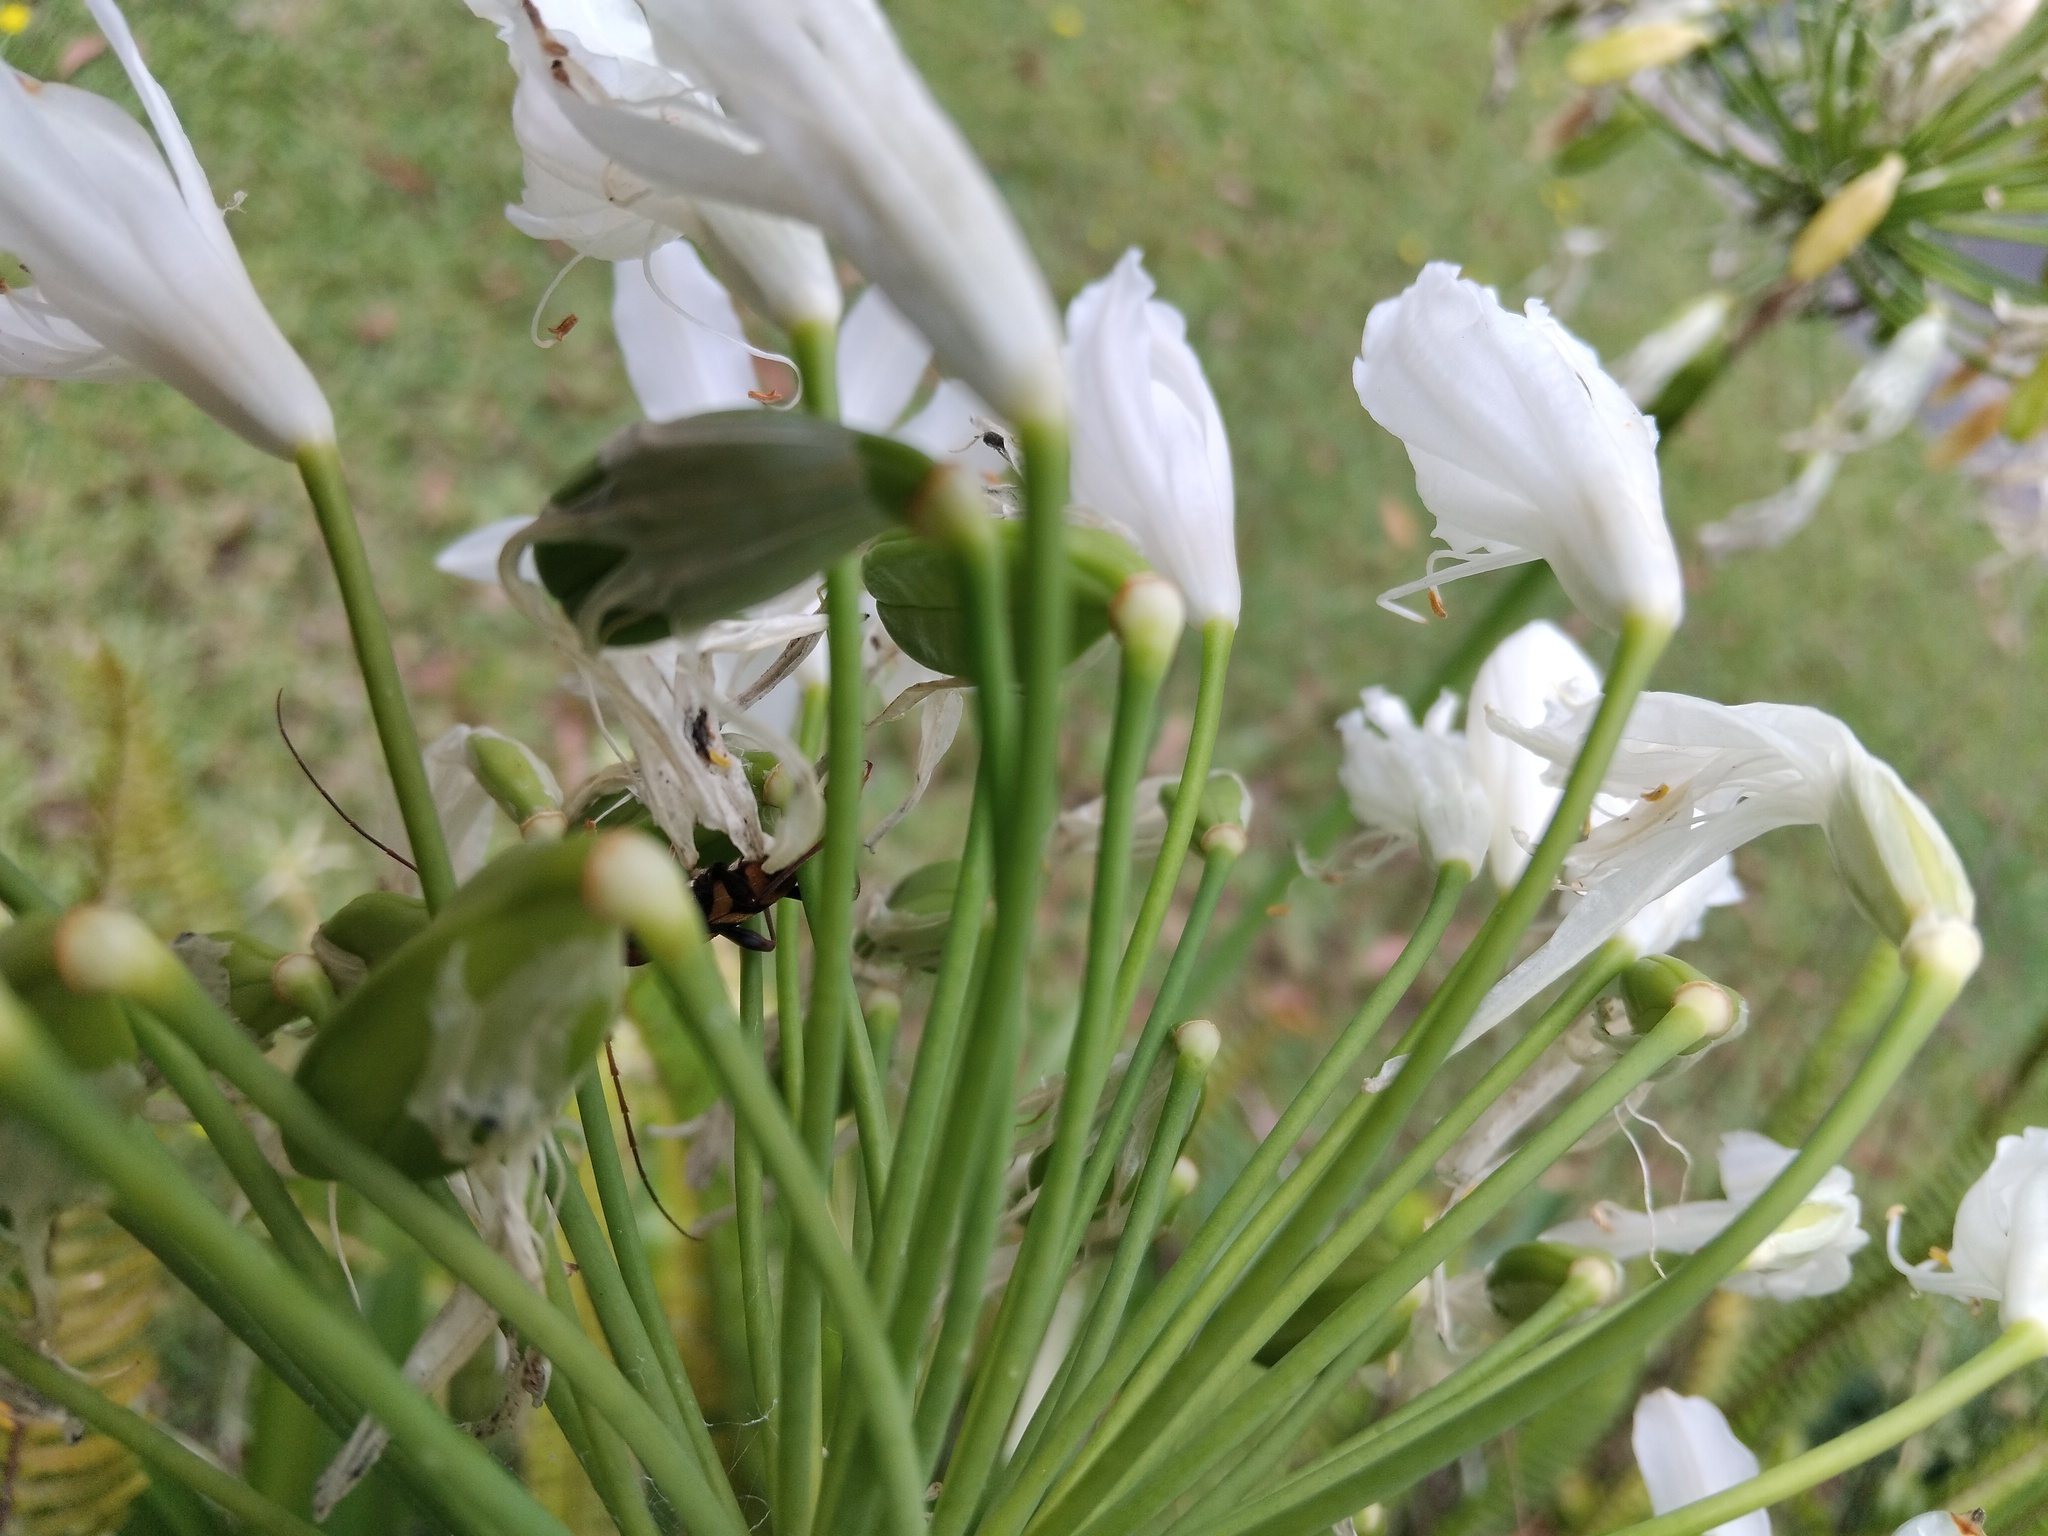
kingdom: Animalia
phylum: Arthropoda
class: Insecta
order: Coleoptera
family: Cerambycidae
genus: Aridaeus
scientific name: Aridaeus thoracicus
